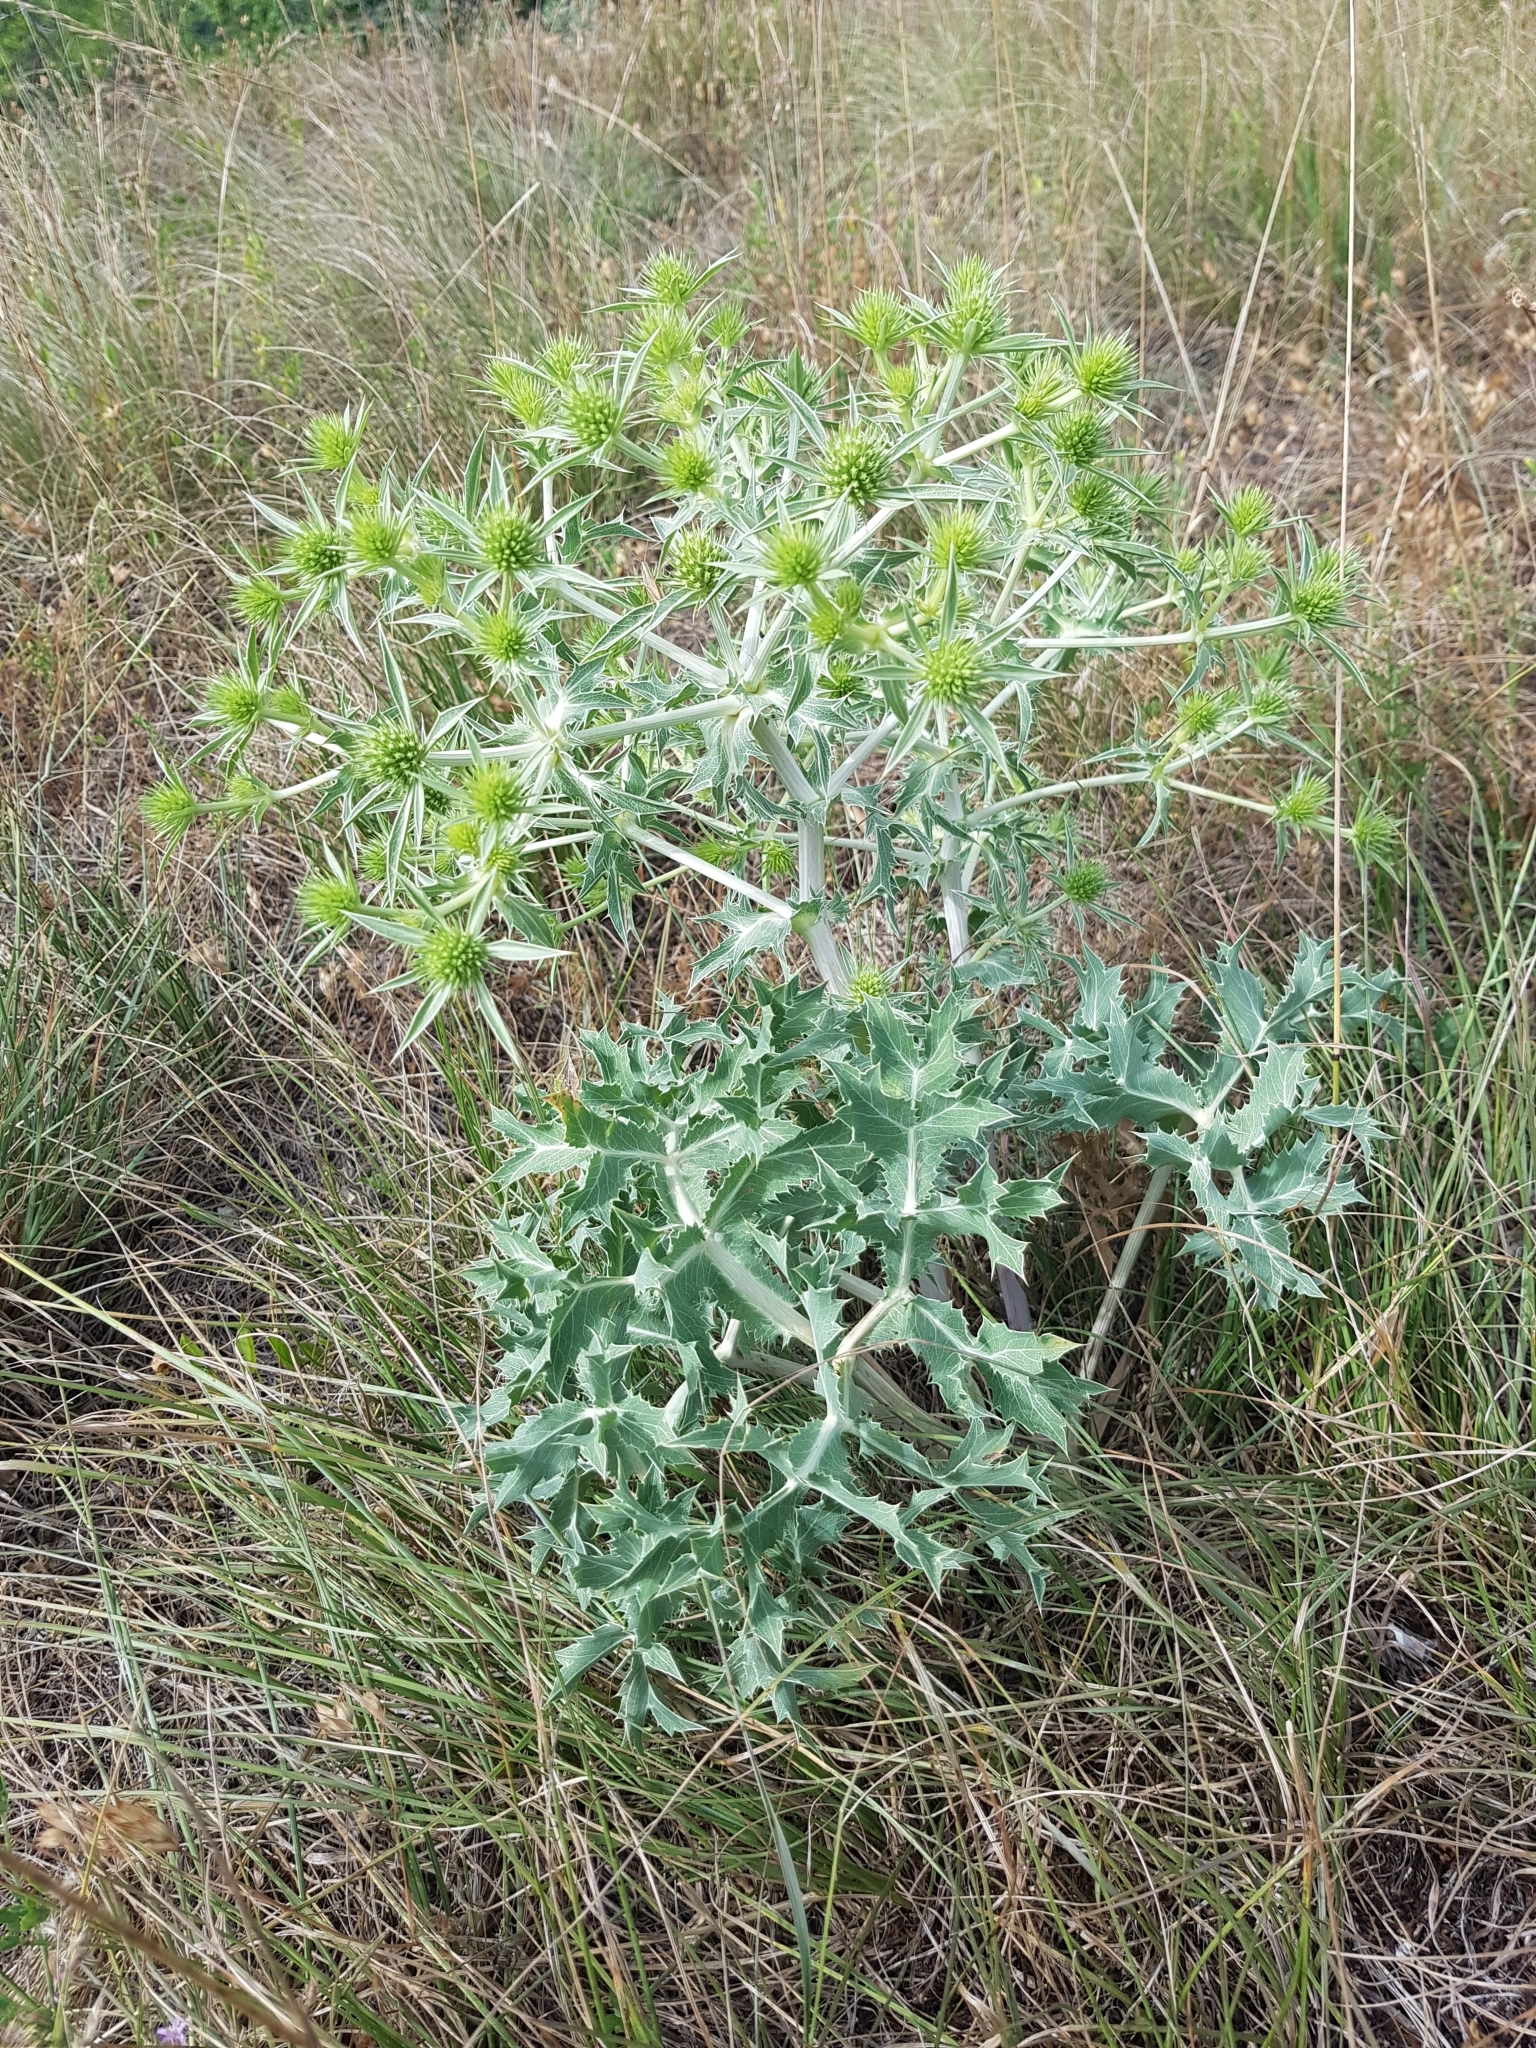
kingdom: Plantae
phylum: Tracheophyta
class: Magnoliopsida
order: Apiales
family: Apiaceae
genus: Eryngium
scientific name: Eryngium campestre
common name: Field eryngo
